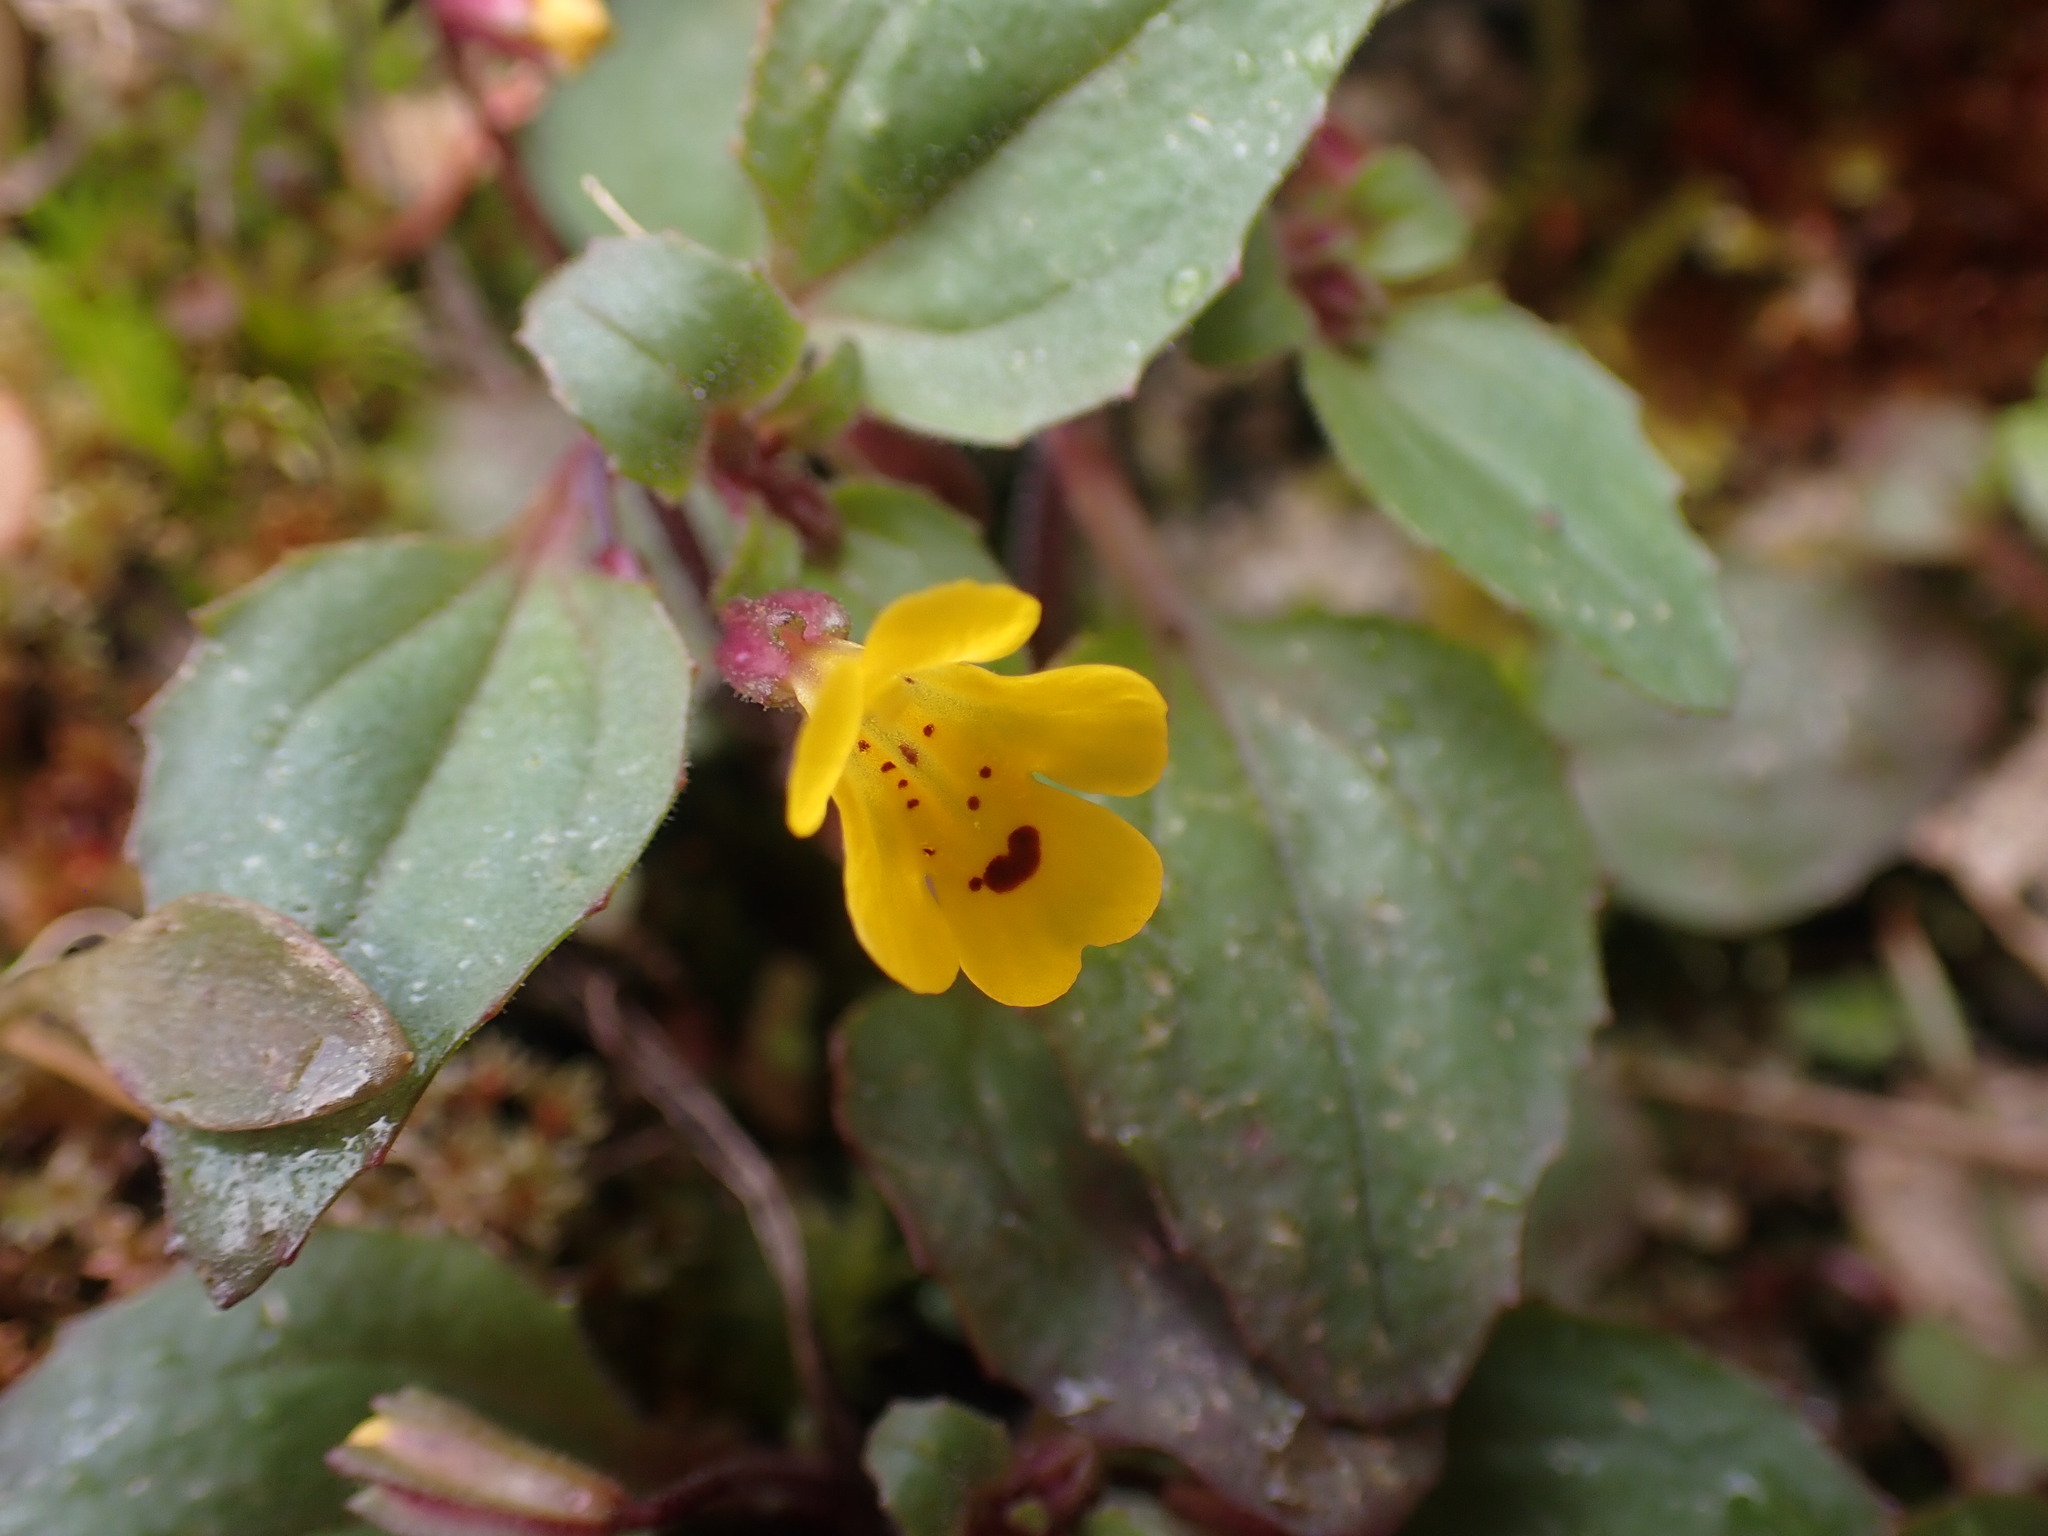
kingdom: Plantae
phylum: Tracheophyta
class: Magnoliopsida
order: Lamiales
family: Phrymaceae
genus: Erythranthe
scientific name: Erythranthe alsinoides
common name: Chickweed monkeyflower
